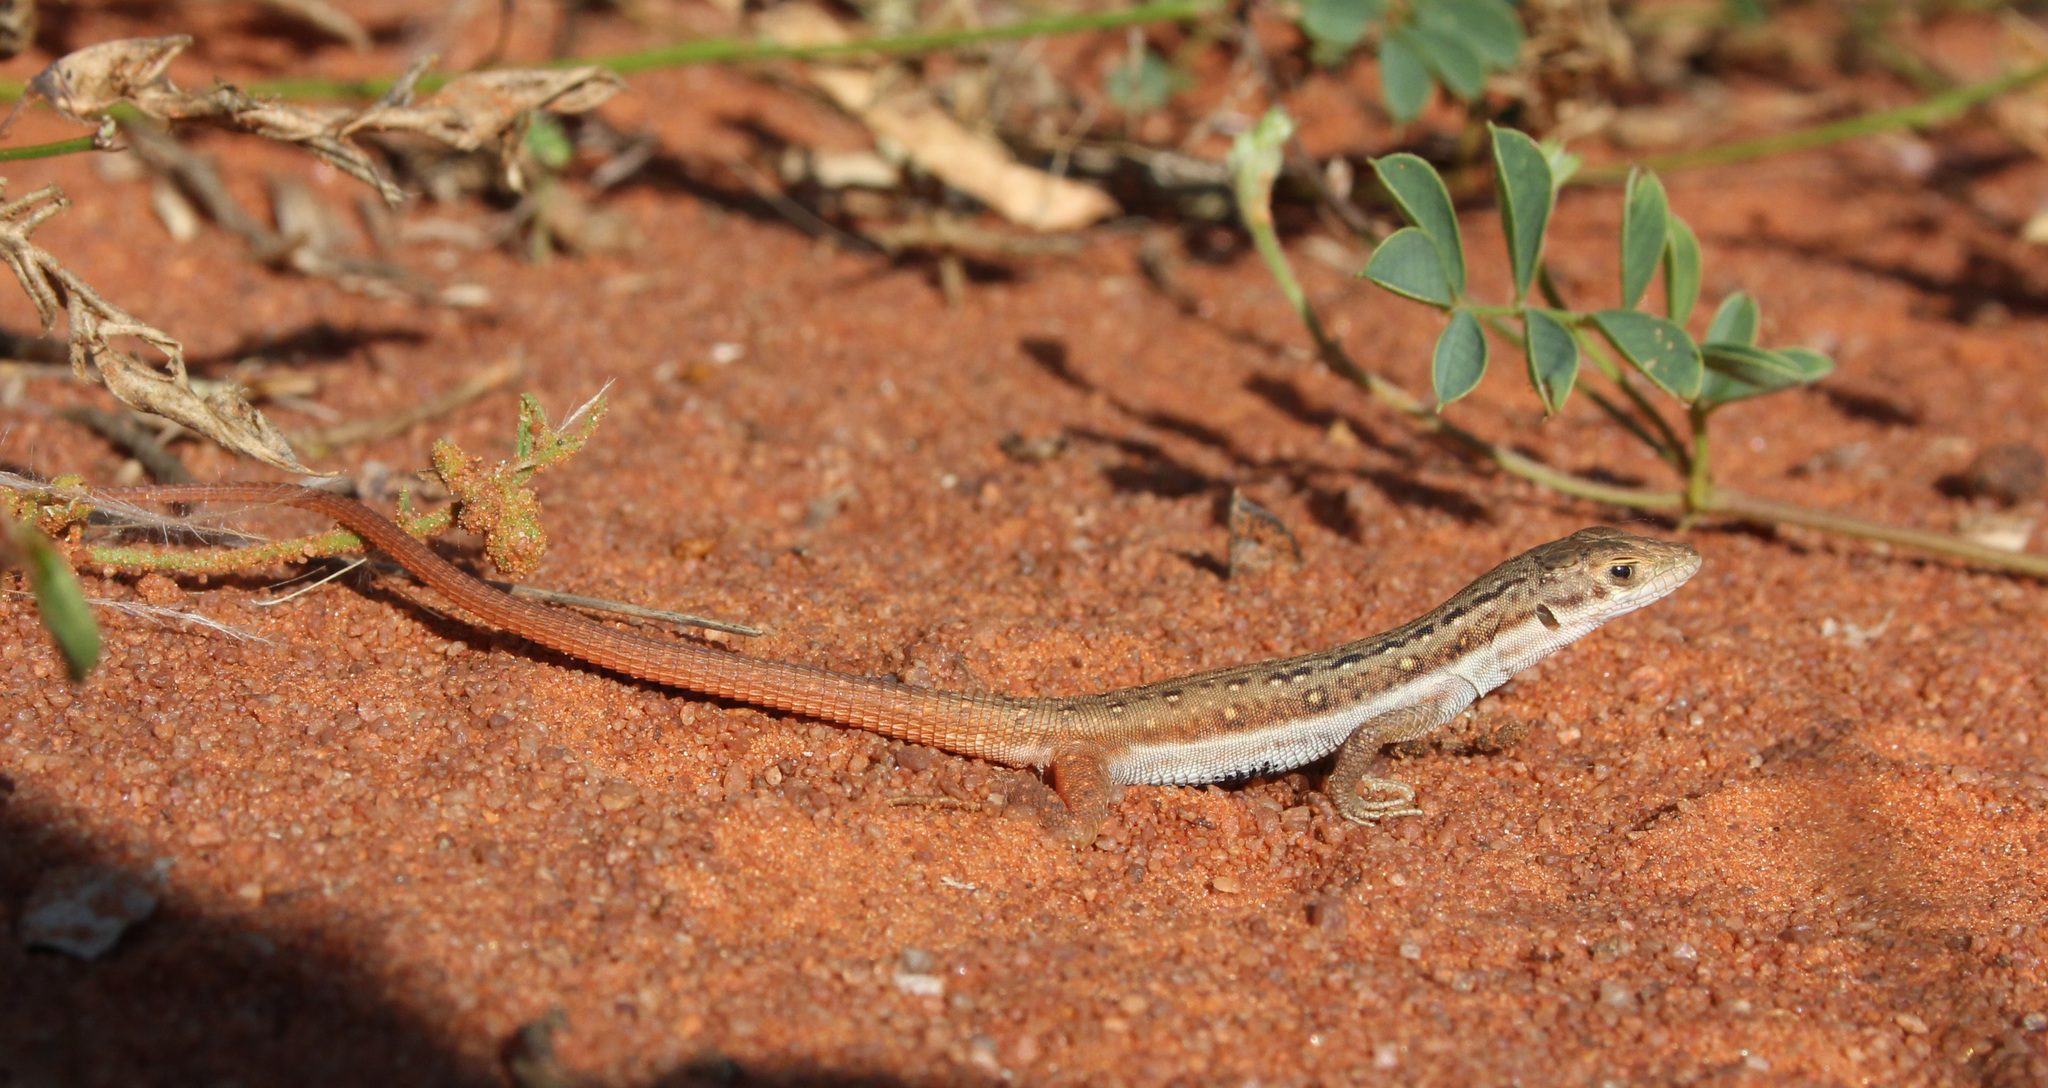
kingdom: Animalia
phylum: Chordata
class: Squamata
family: Lacertidae
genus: Pedioplanis
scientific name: Pedioplanis lineoocellata
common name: Spotted sand lizard
